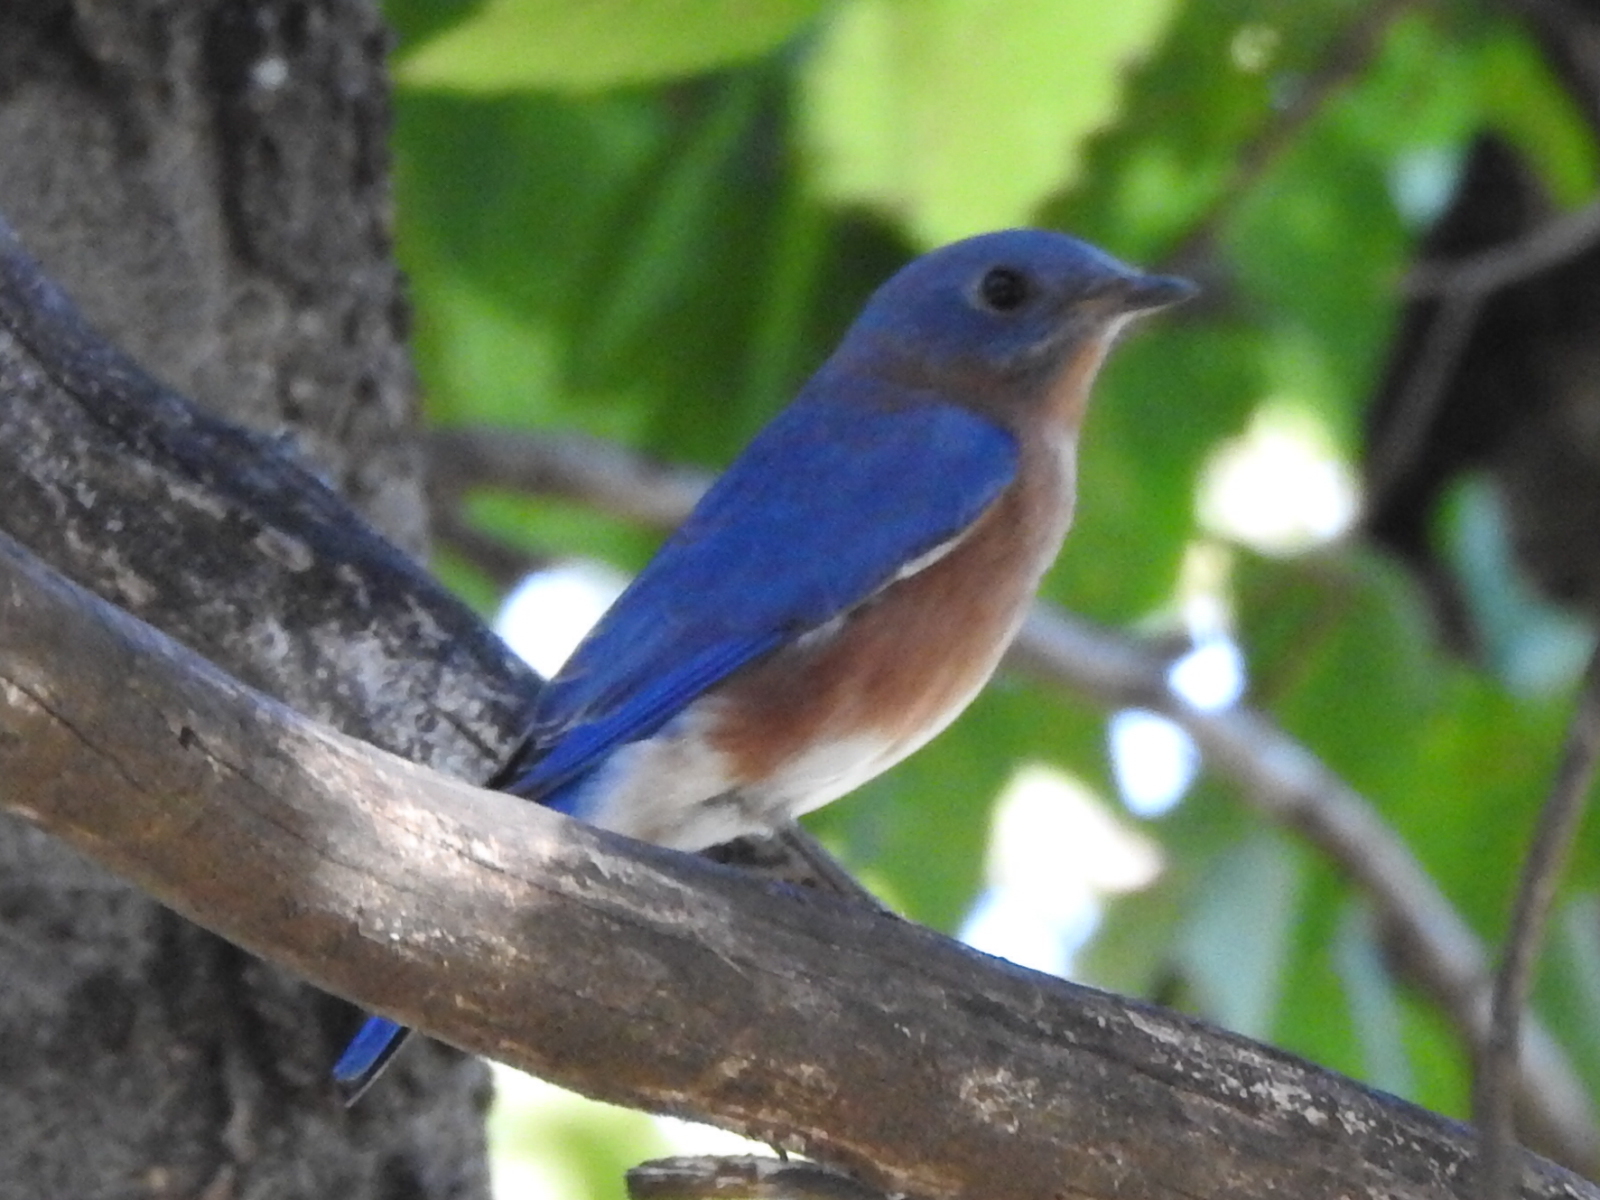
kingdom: Animalia
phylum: Chordata
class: Aves
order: Passeriformes
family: Turdidae
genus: Sialia
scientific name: Sialia sialis
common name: Eastern bluebird
